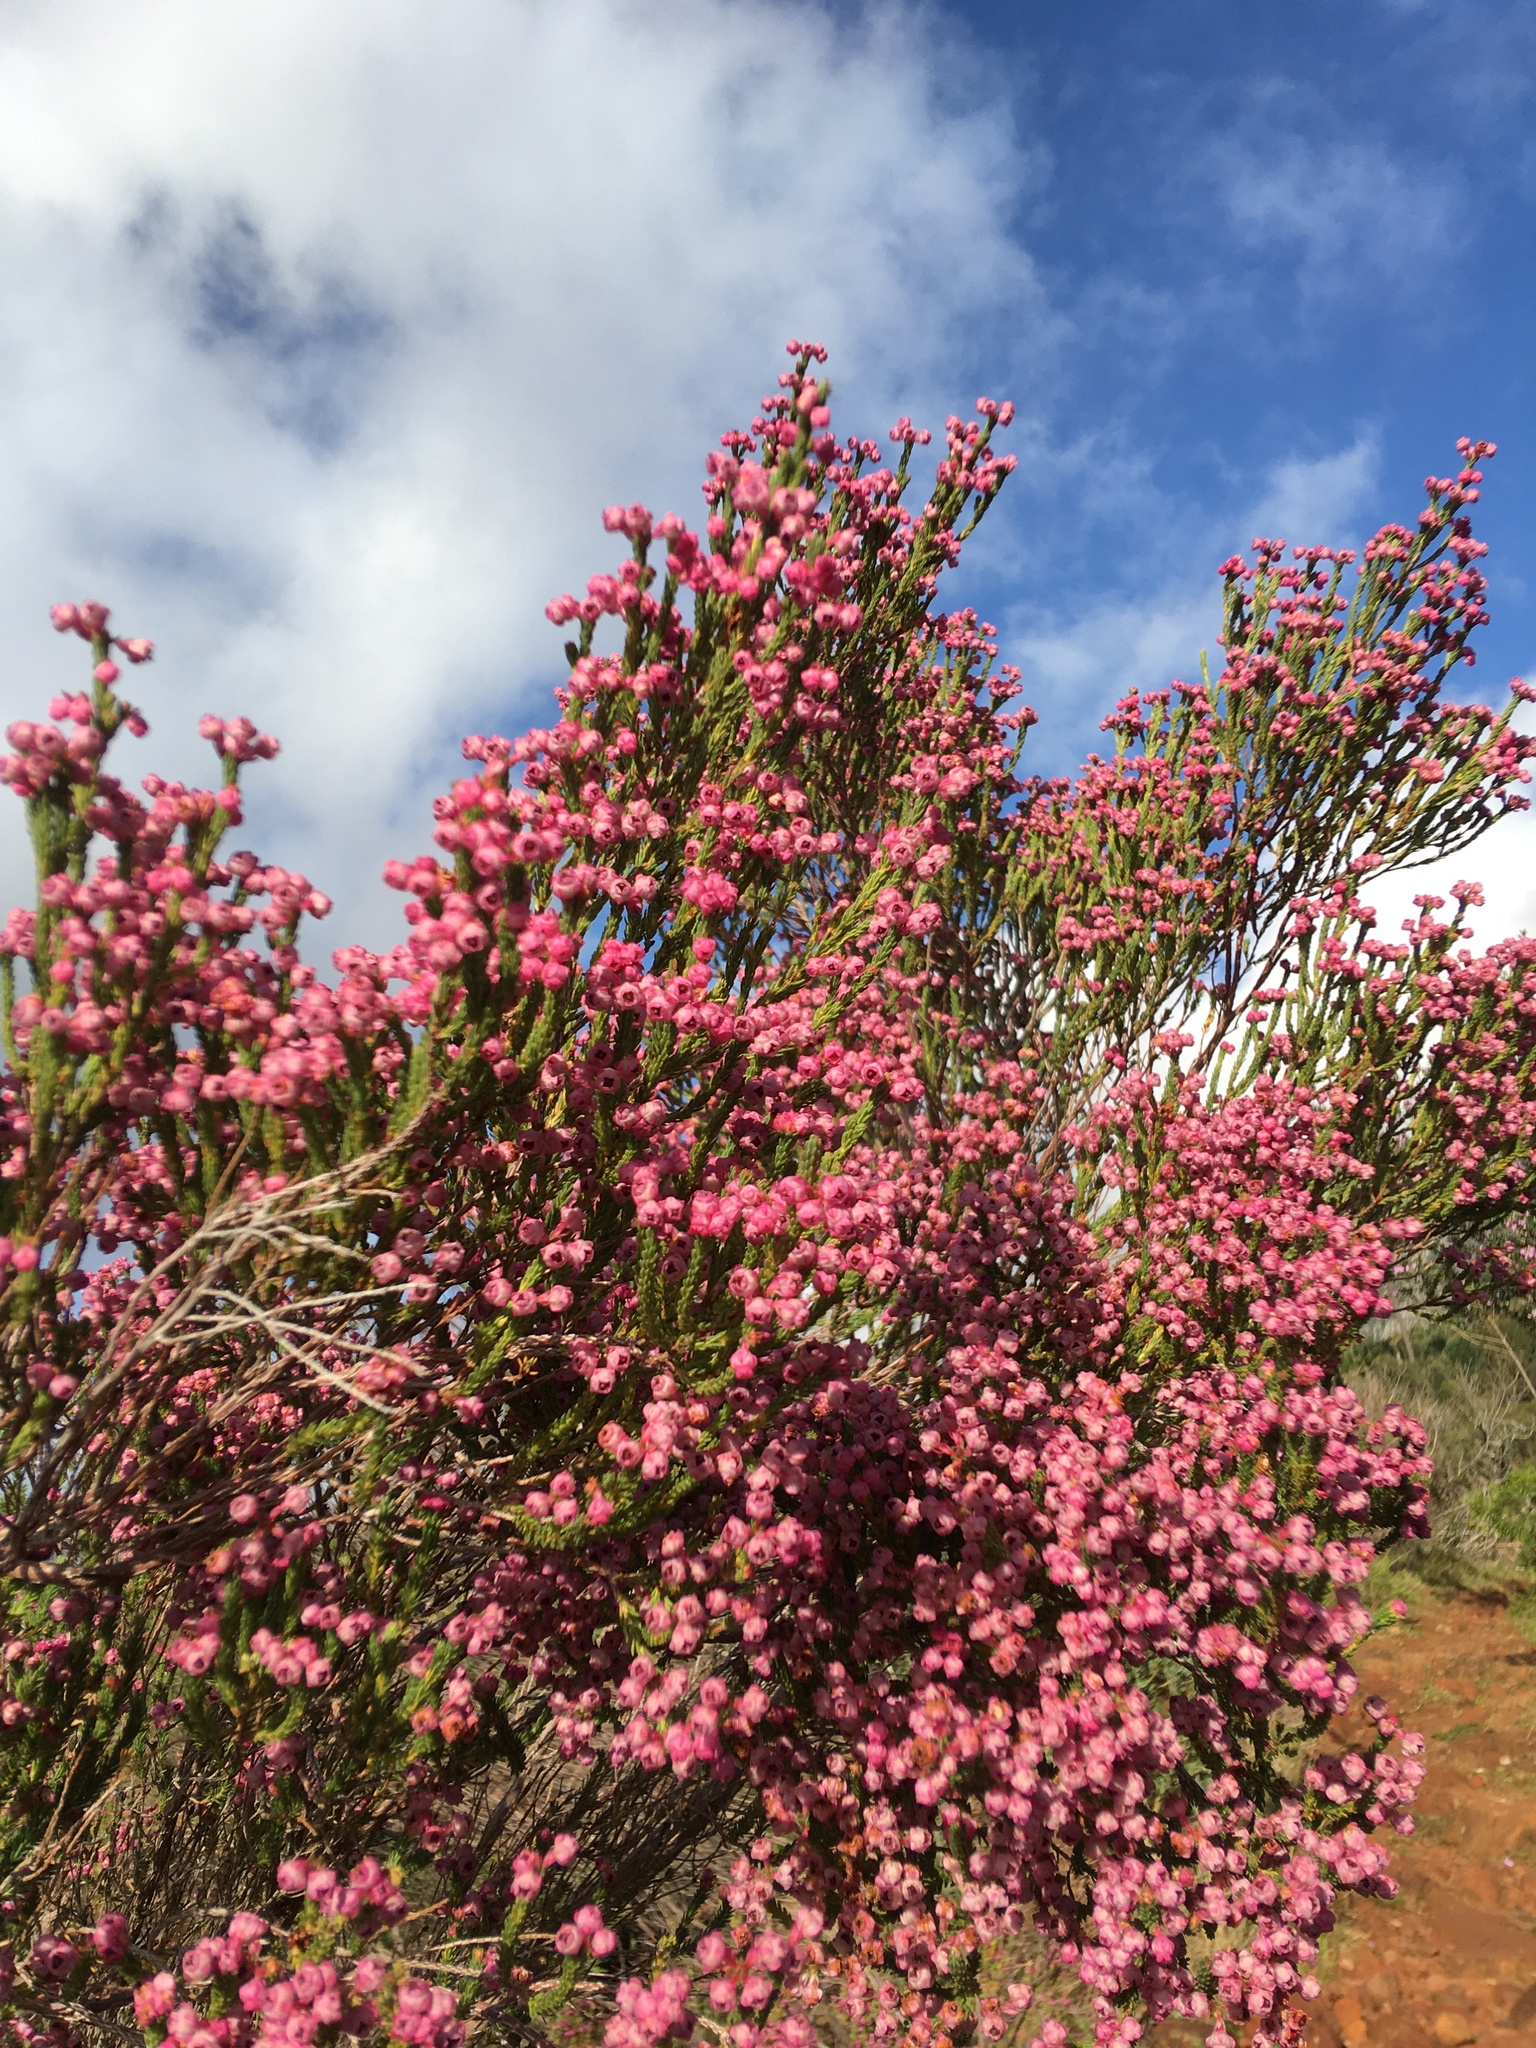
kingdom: Plantae
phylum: Tracheophyta
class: Magnoliopsida
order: Ericales
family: Ericaceae
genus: Erica
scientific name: Erica baccans
